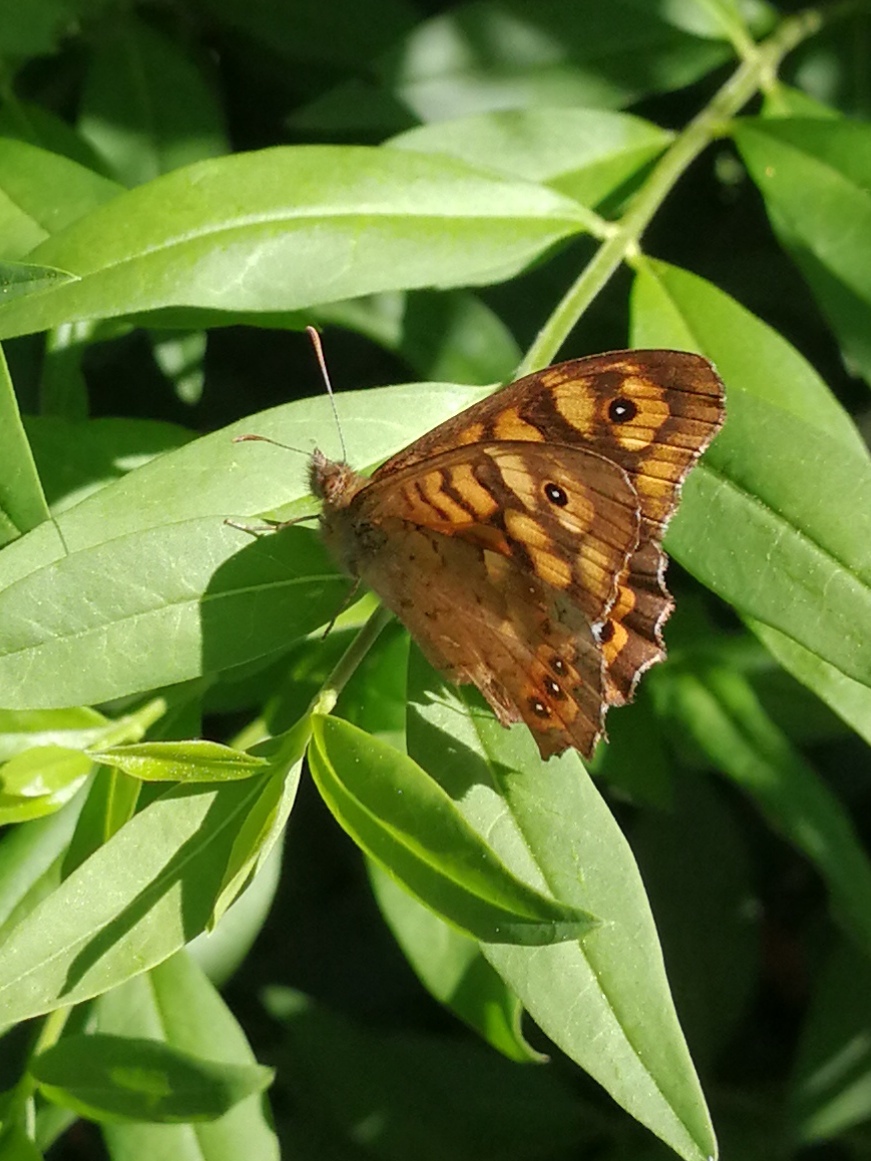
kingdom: Animalia
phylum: Arthropoda
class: Insecta
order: Lepidoptera
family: Nymphalidae
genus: Pararge
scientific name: Pararge aegeria
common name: Speckled wood
